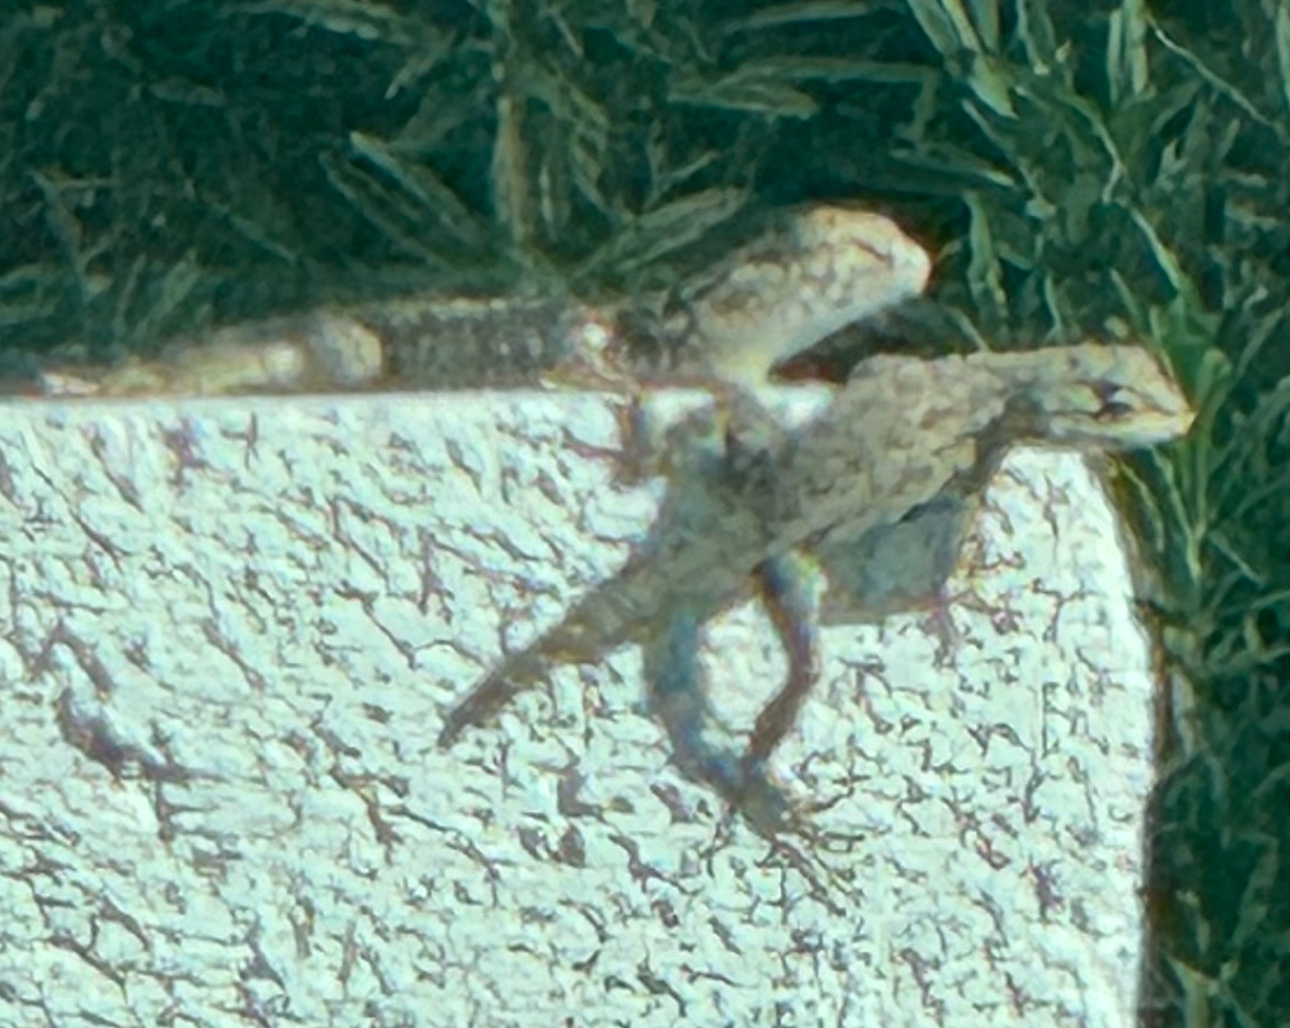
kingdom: Animalia
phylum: Chordata
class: Squamata
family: Phrynosomatidae
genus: Sceloporus
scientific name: Sceloporus occidentalis
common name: Western fence lizard
